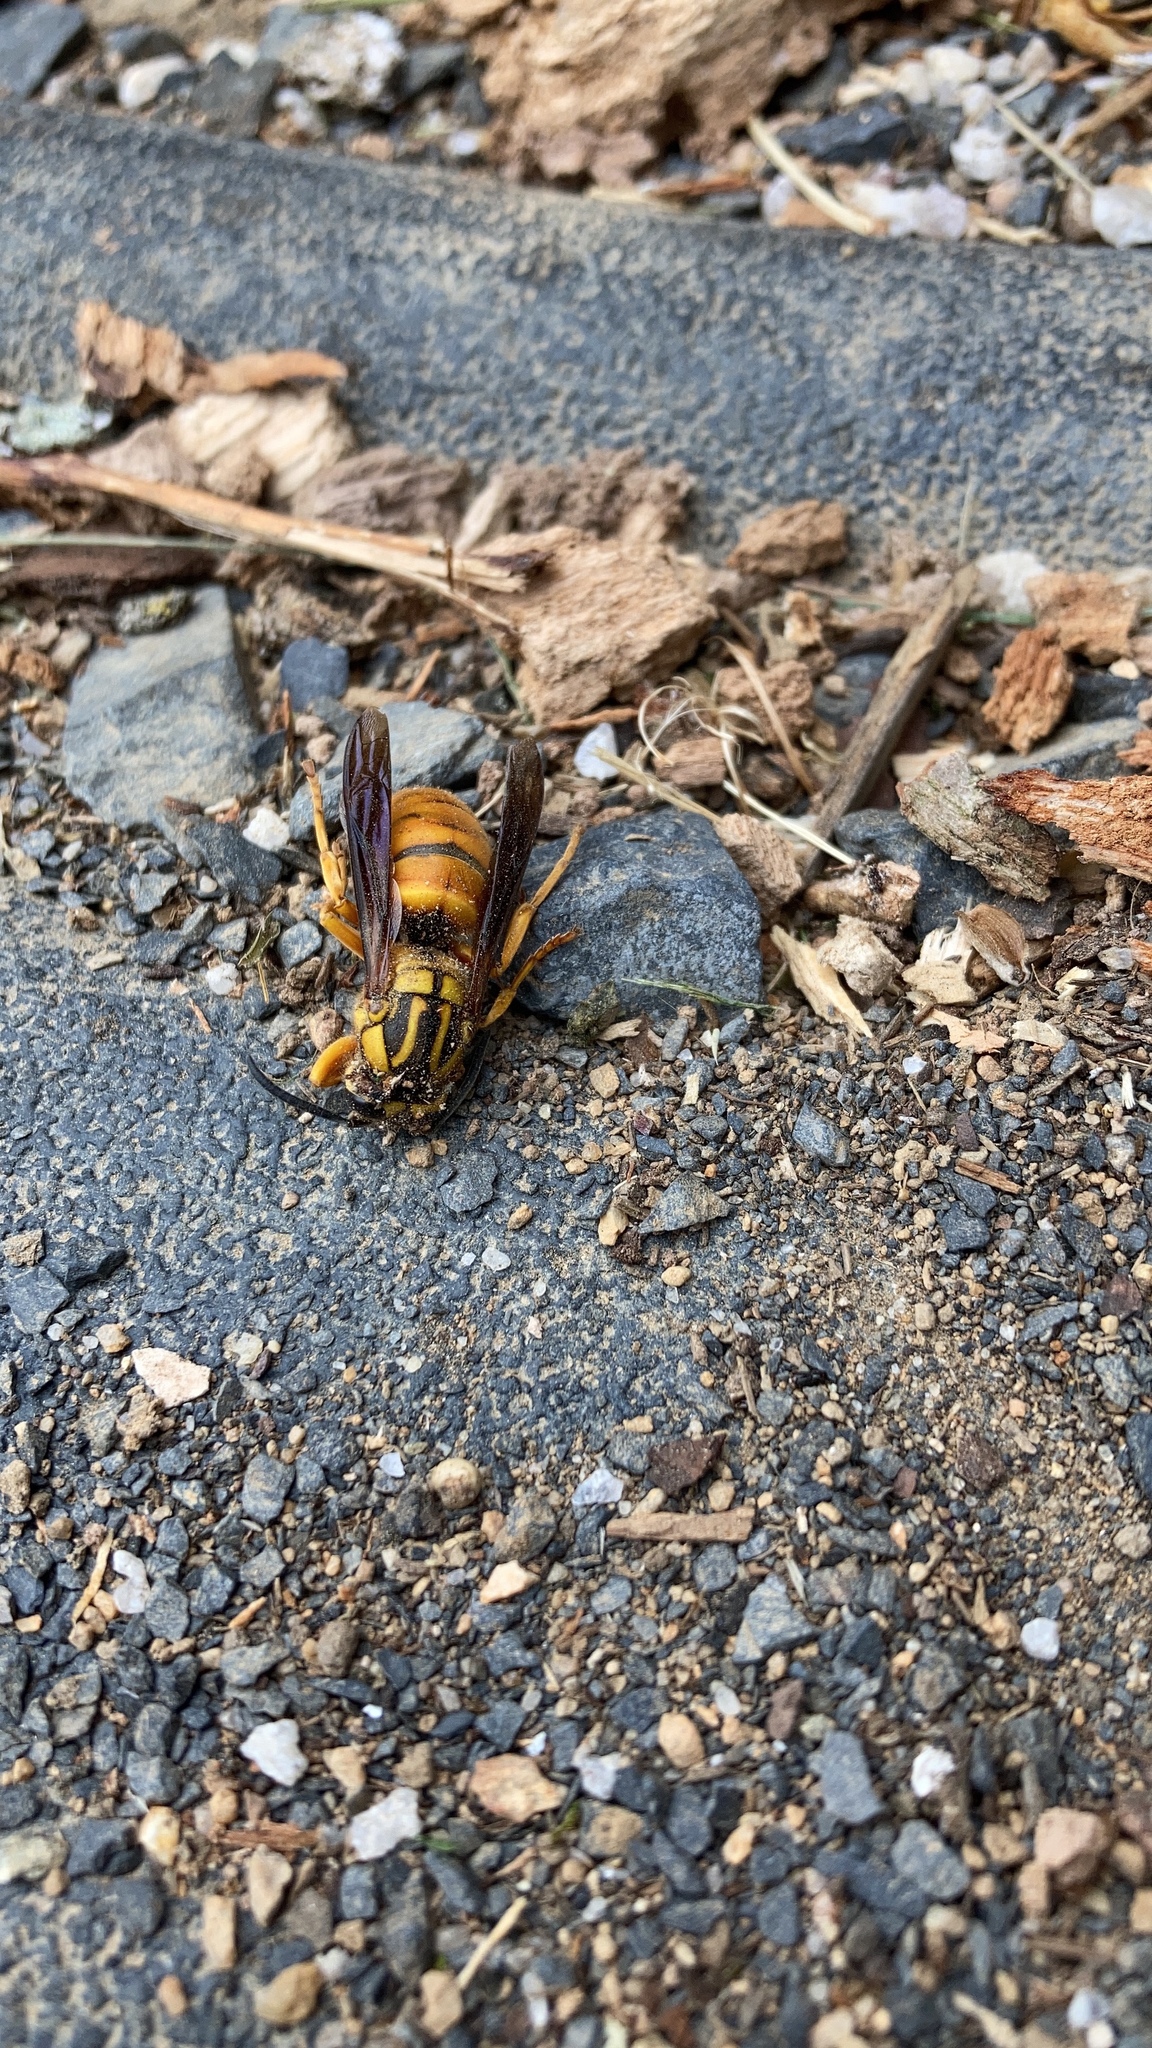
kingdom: Animalia
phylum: Arthropoda
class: Insecta
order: Hymenoptera
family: Vespidae
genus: Vespula
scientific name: Vespula squamosa
